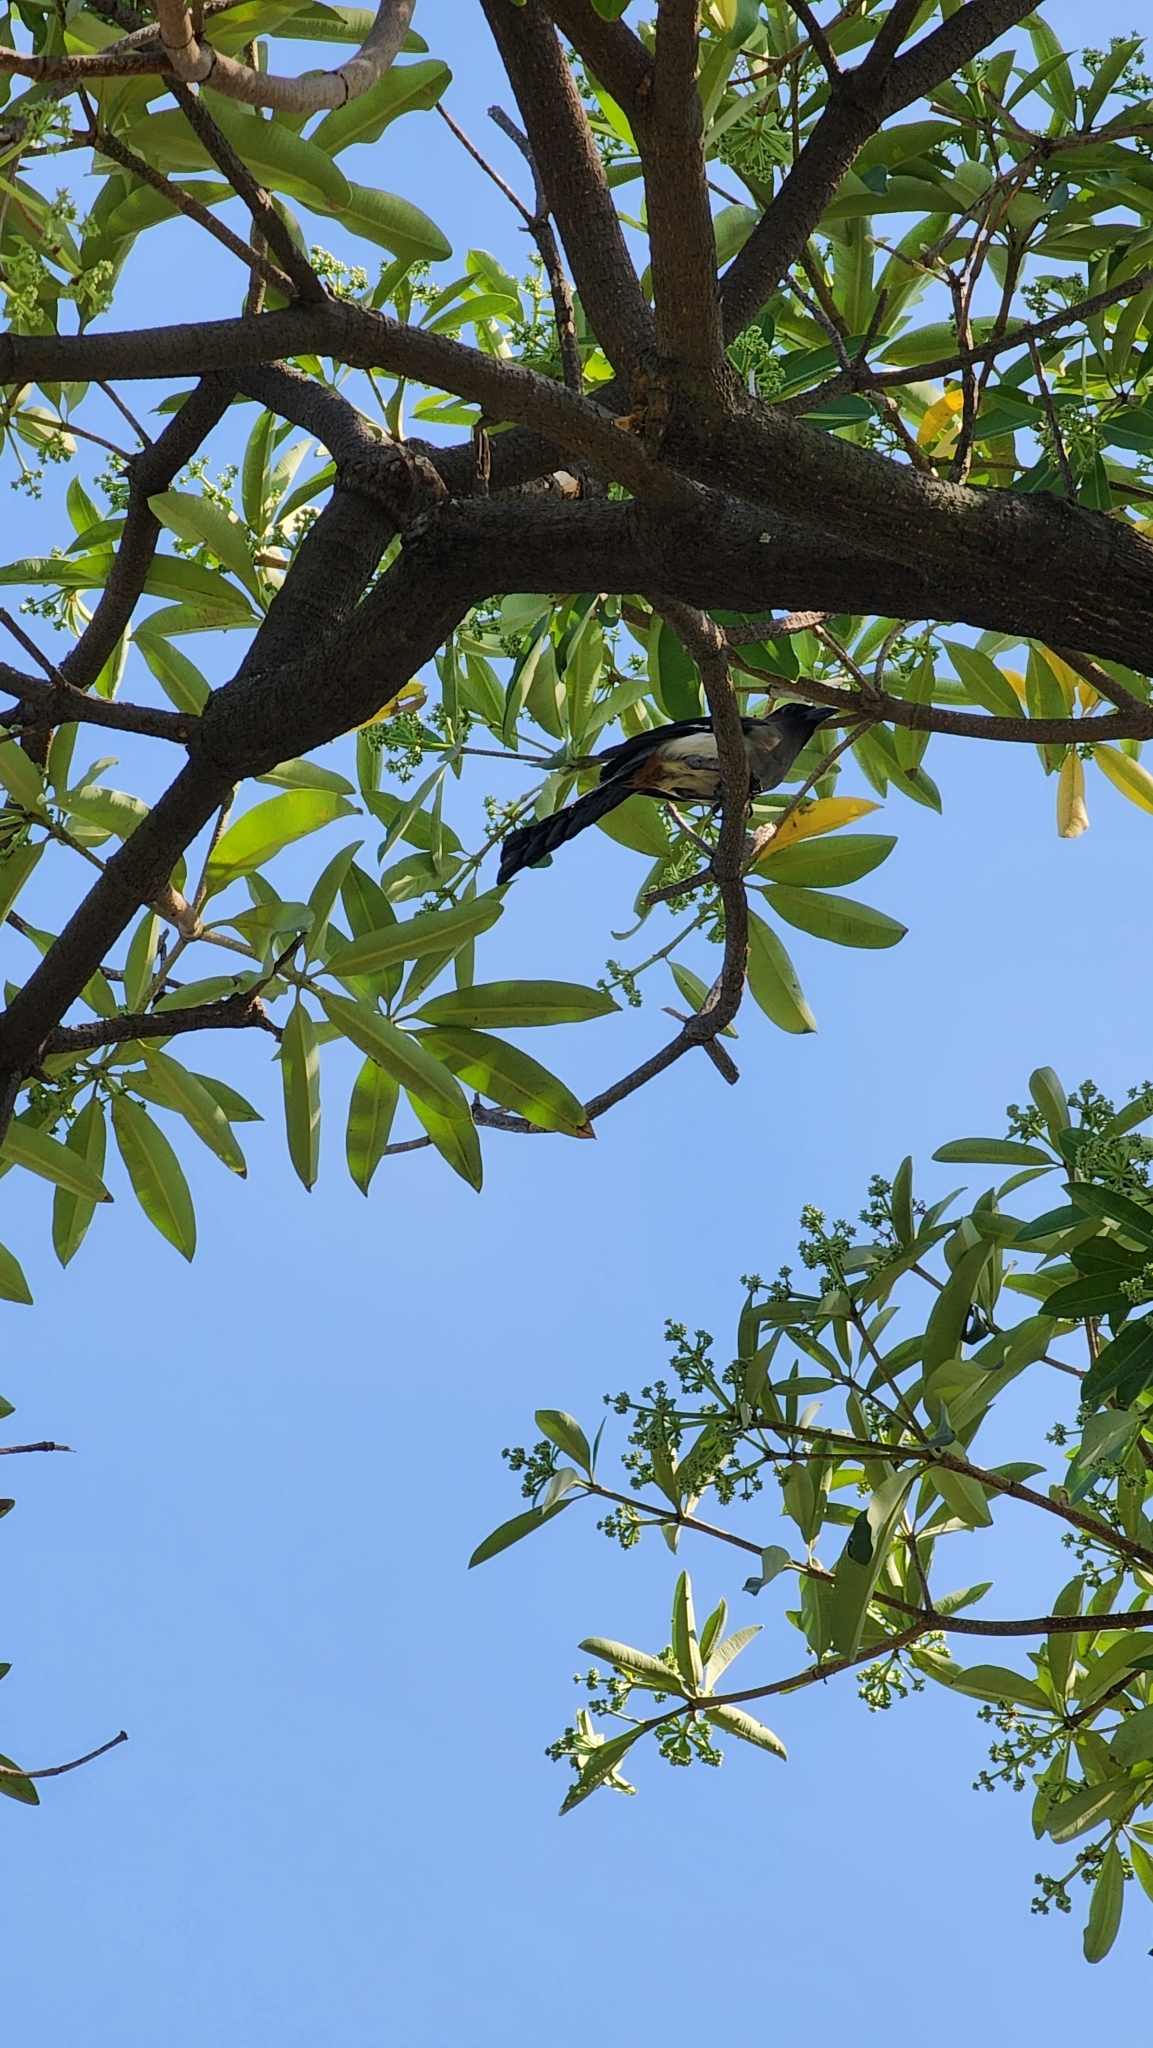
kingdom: Animalia
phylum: Chordata
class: Aves
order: Passeriformes
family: Corvidae
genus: Dendrocitta
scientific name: Dendrocitta formosae
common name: Grey treepie
